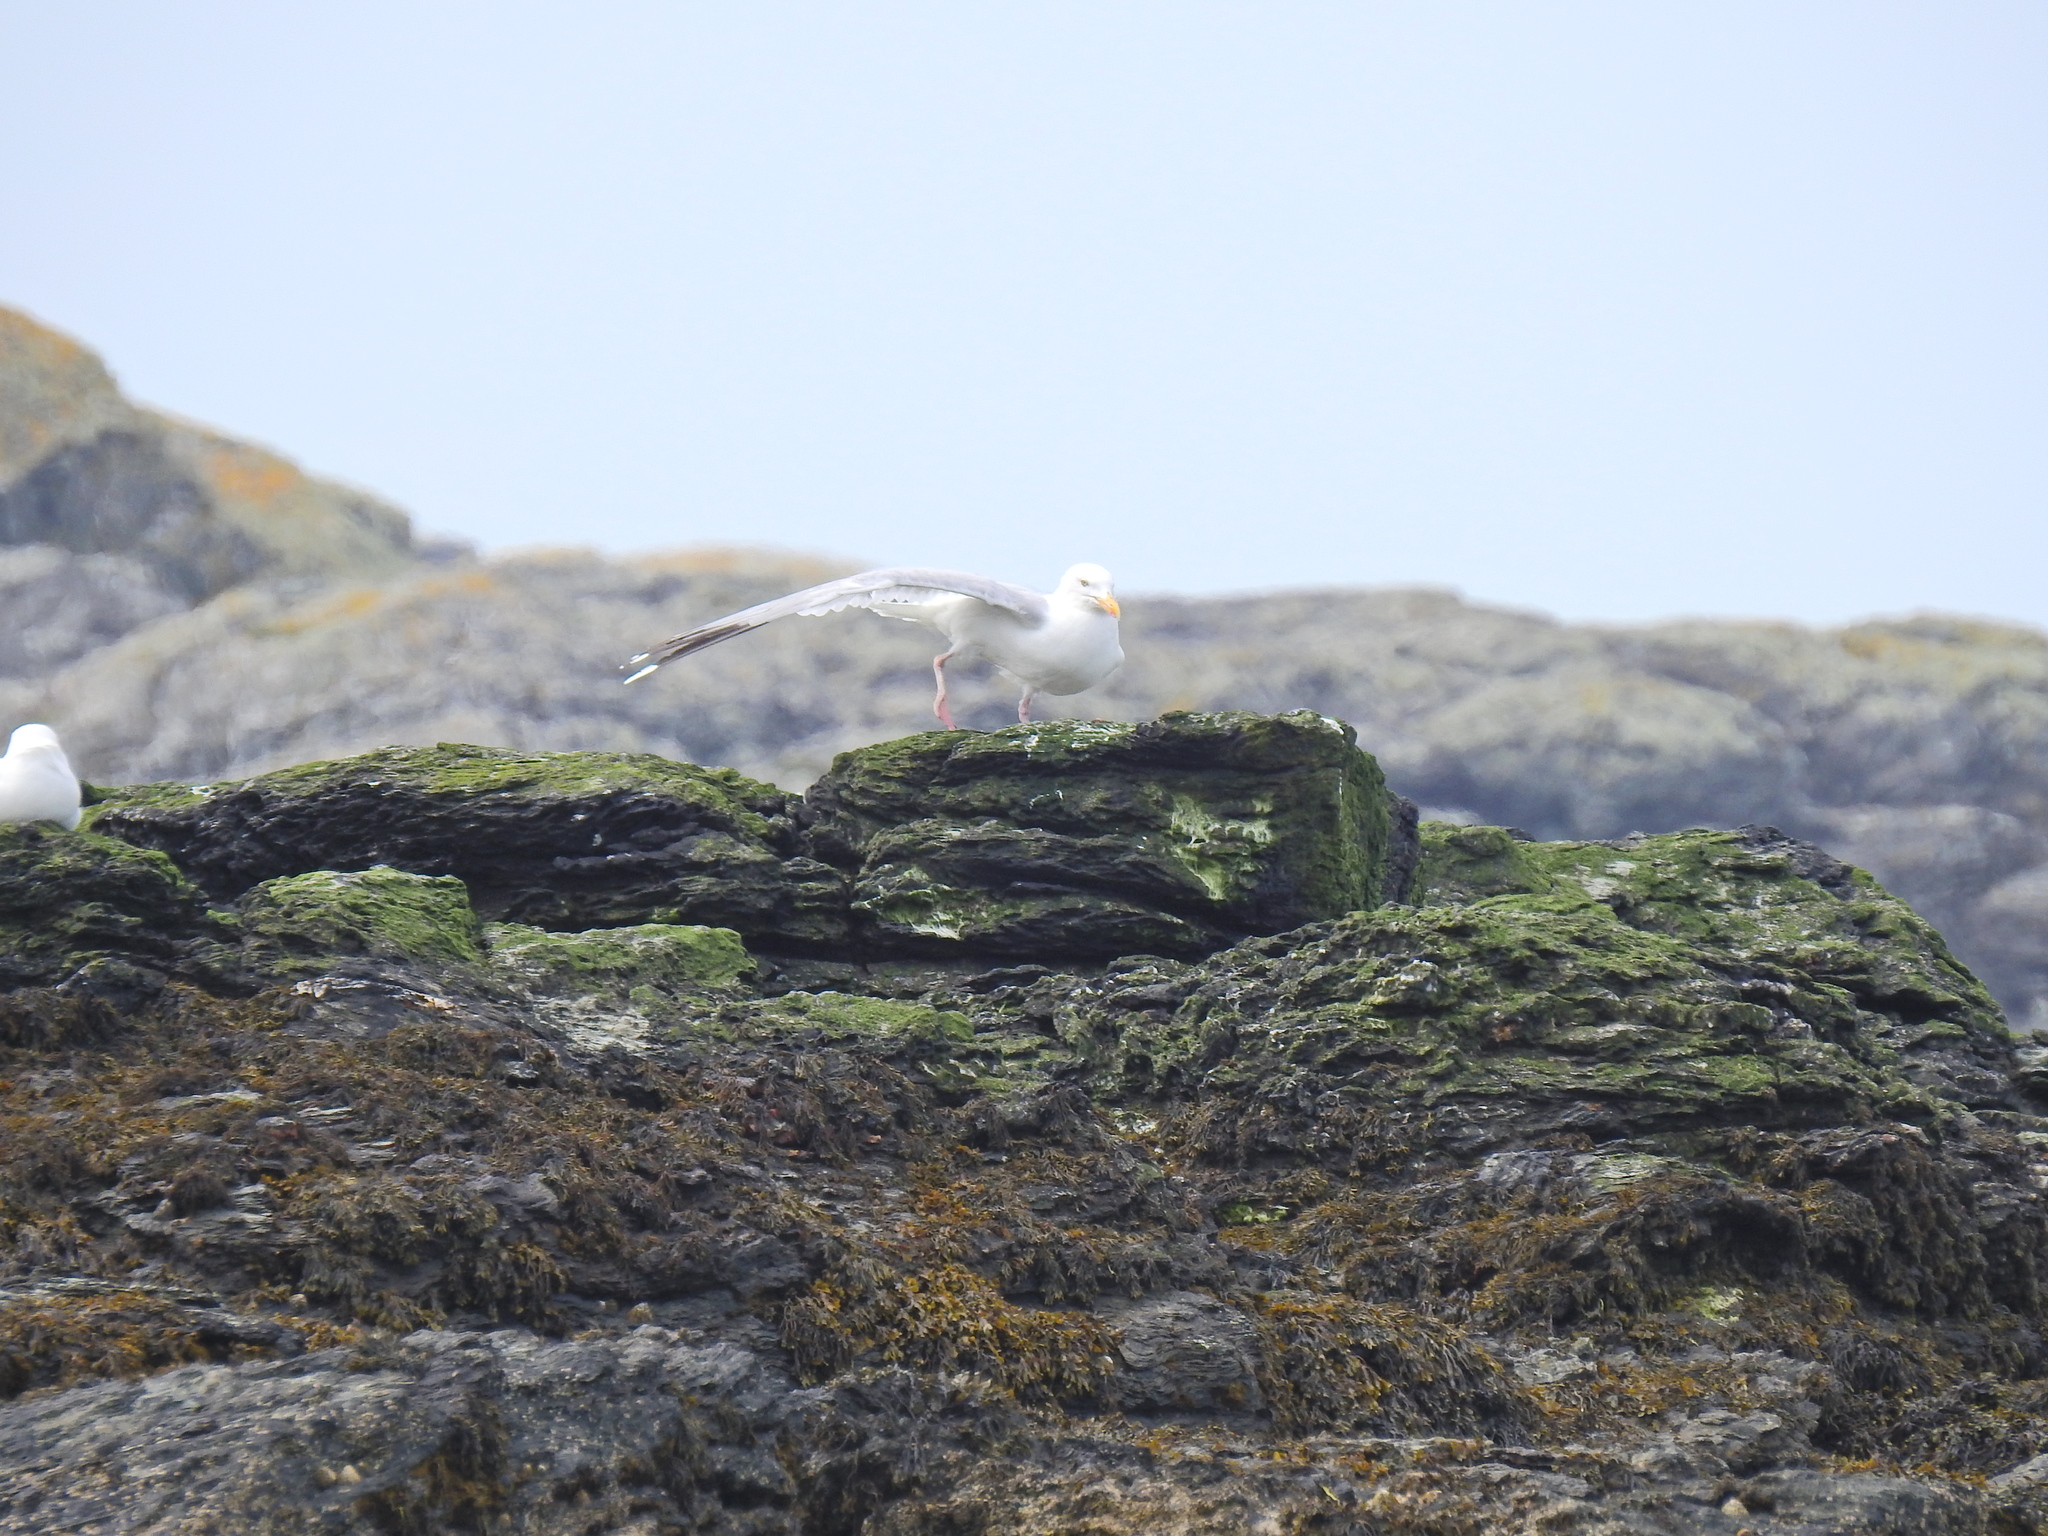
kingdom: Animalia
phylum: Chordata
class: Aves
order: Charadriiformes
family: Laridae
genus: Larus
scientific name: Larus argentatus
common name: Herring gull
